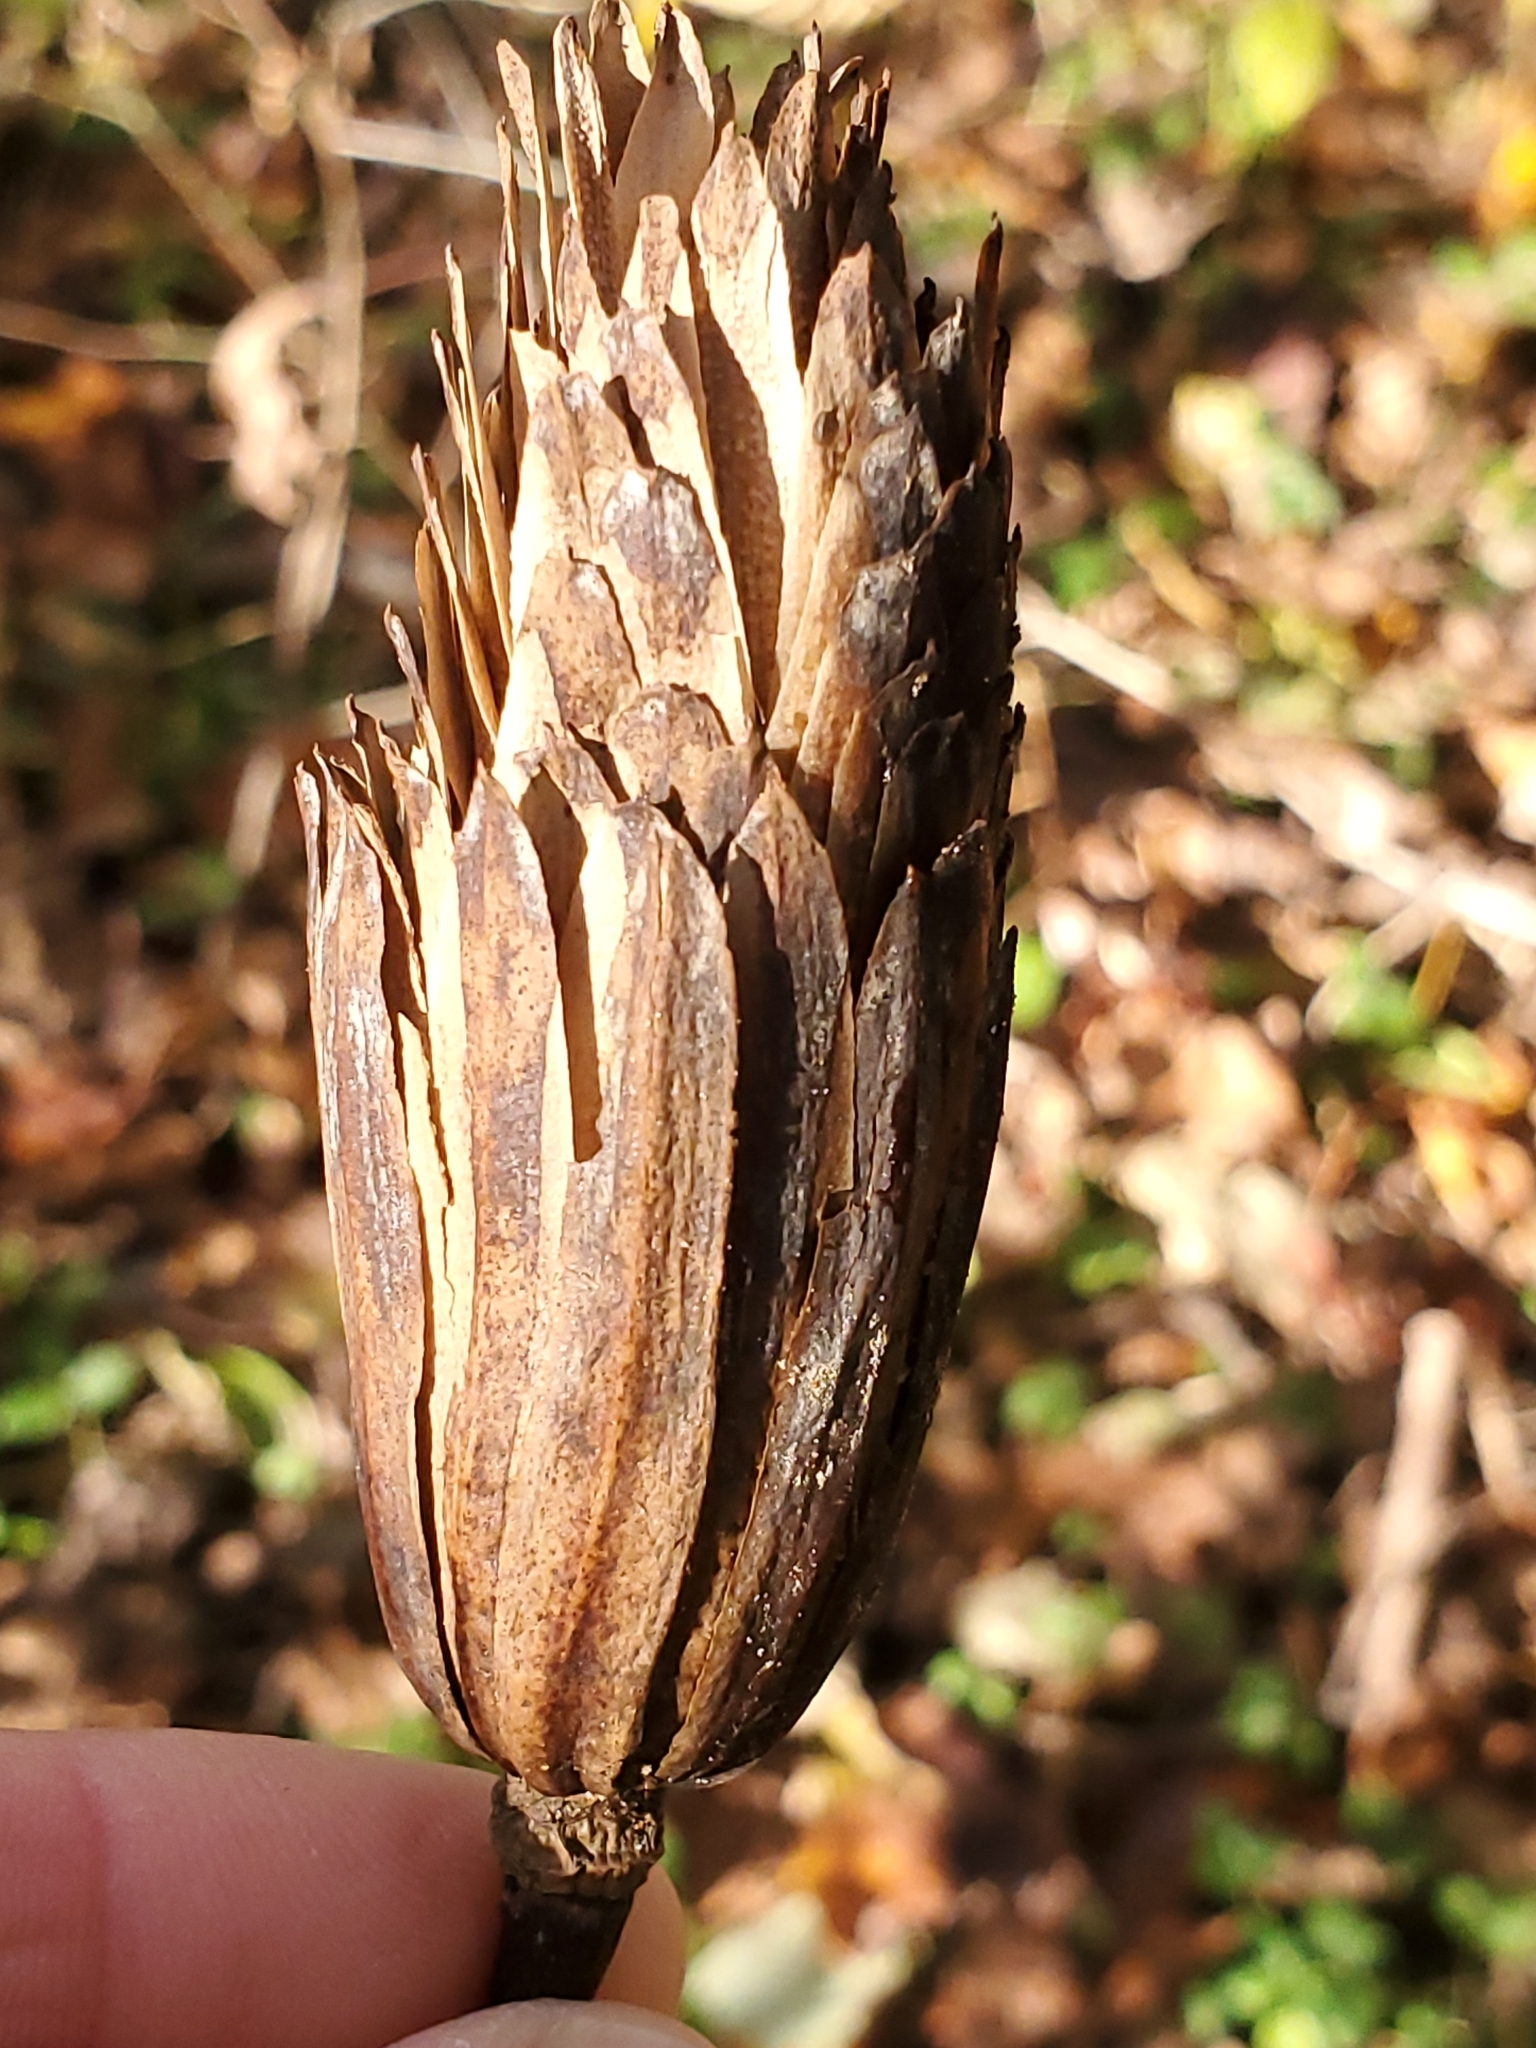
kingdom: Plantae
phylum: Tracheophyta
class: Magnoliopsida
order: Magnoliales
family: Magnoliaceae
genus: Liriodendron
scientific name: Liriodendron tulipifera
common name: Tulip tree
